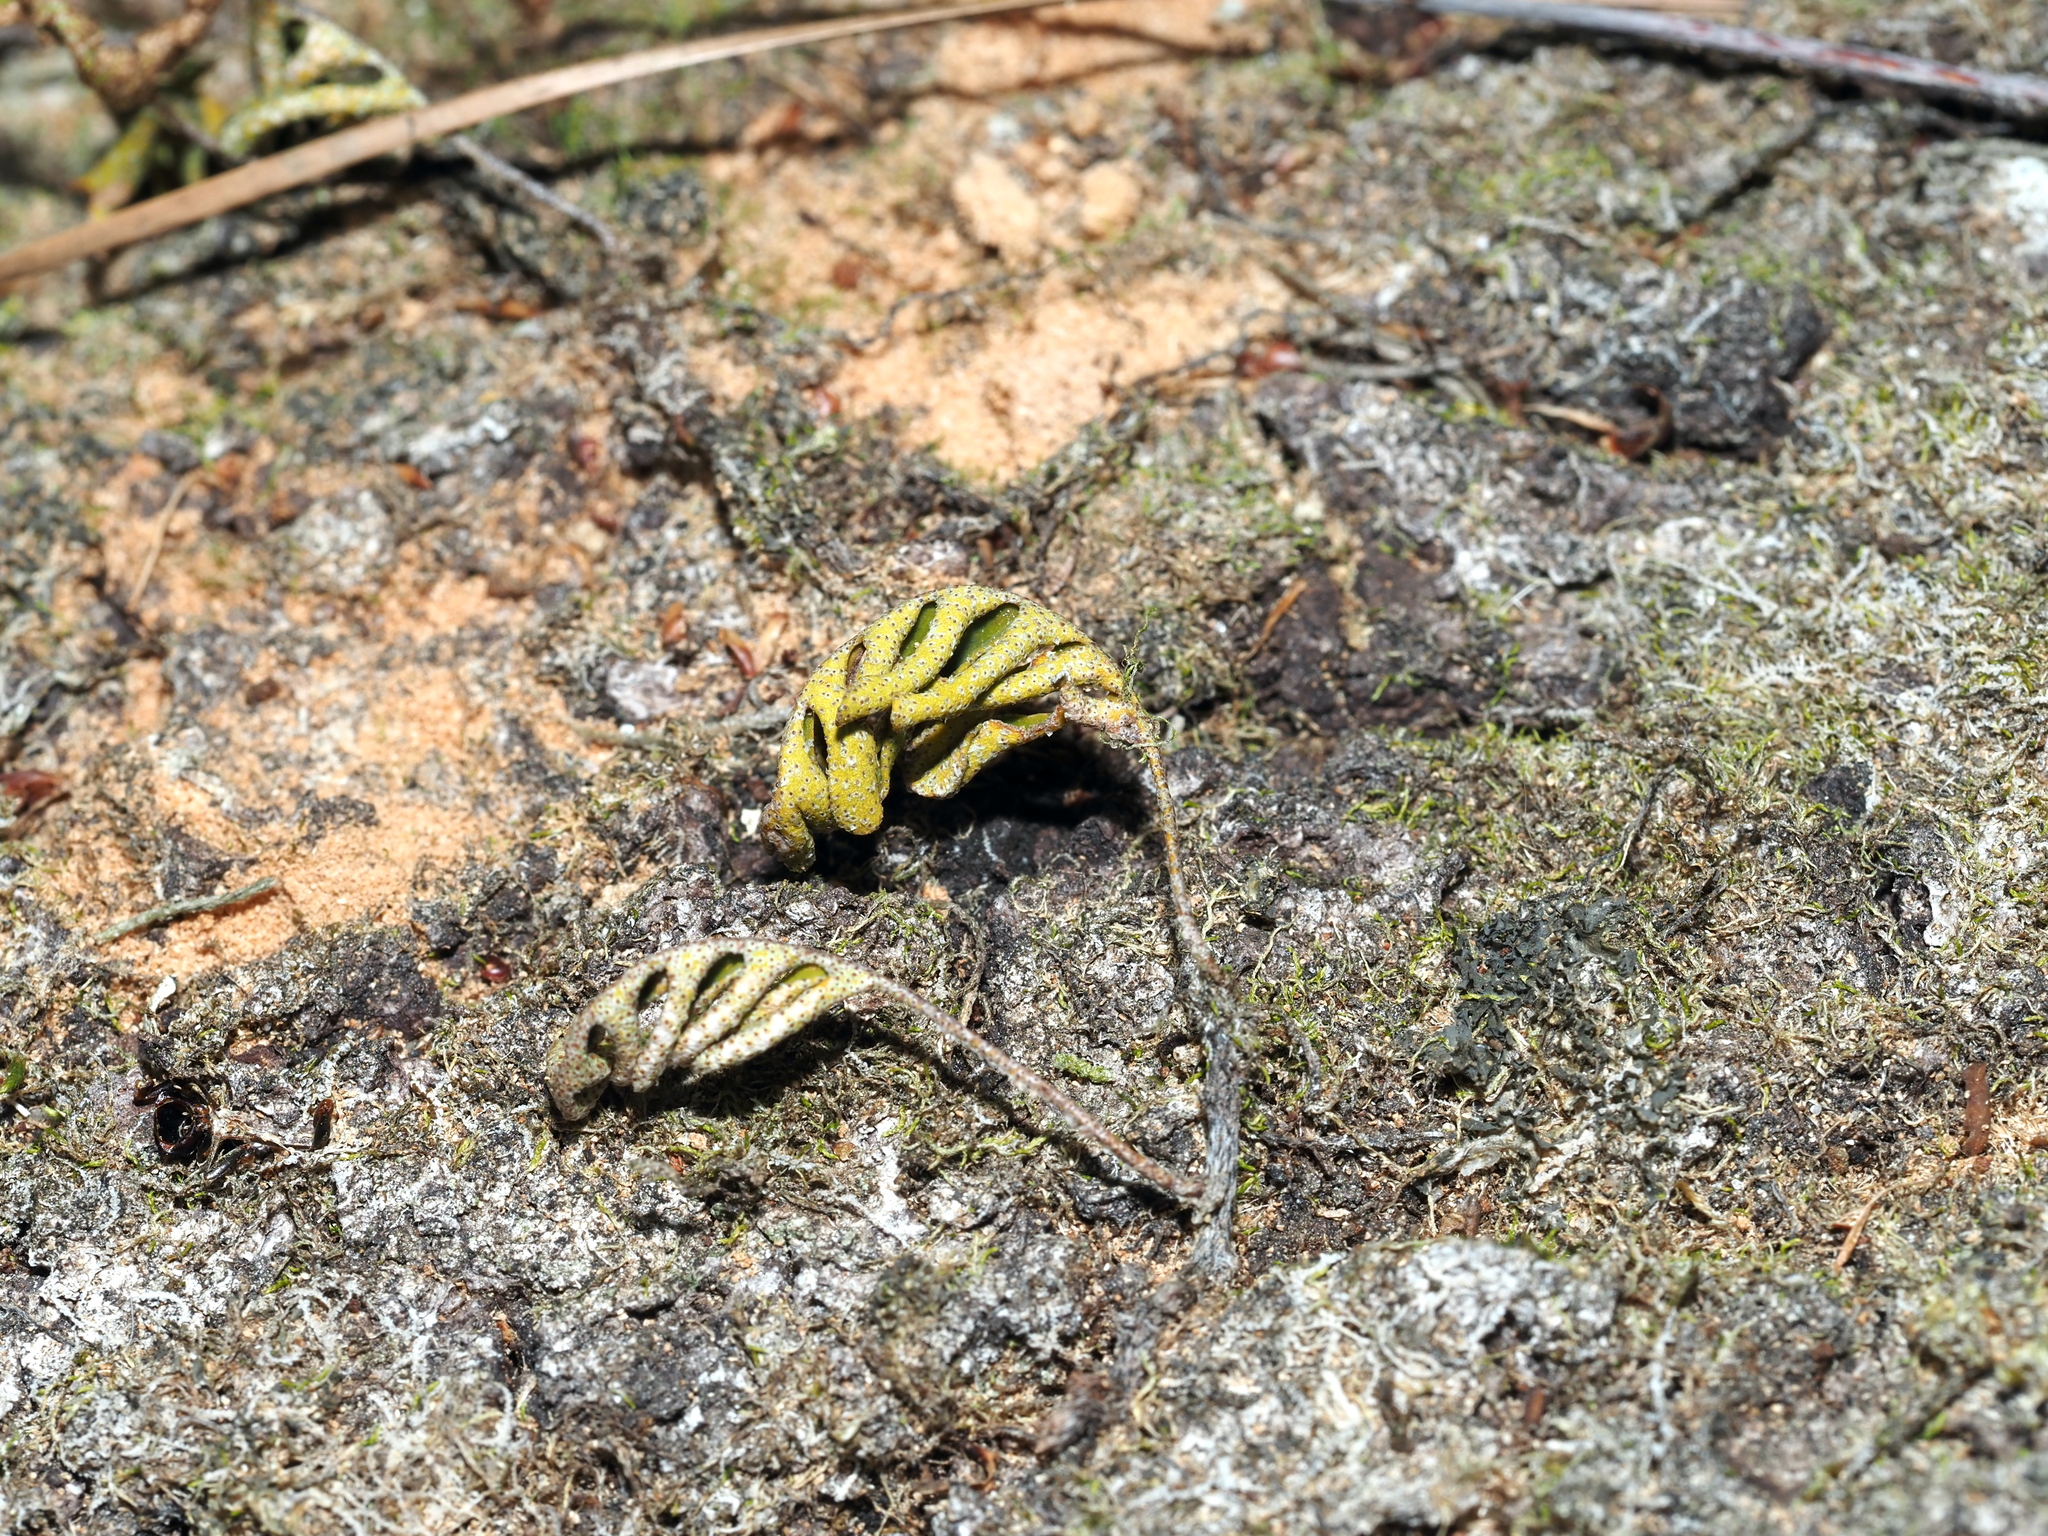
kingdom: Plantae
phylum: Tracheophyta
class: Polypodiopsida
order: Polypodiales
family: Polypodiaceae
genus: Pleopeltis
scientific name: Pleopeltis michauxiana
